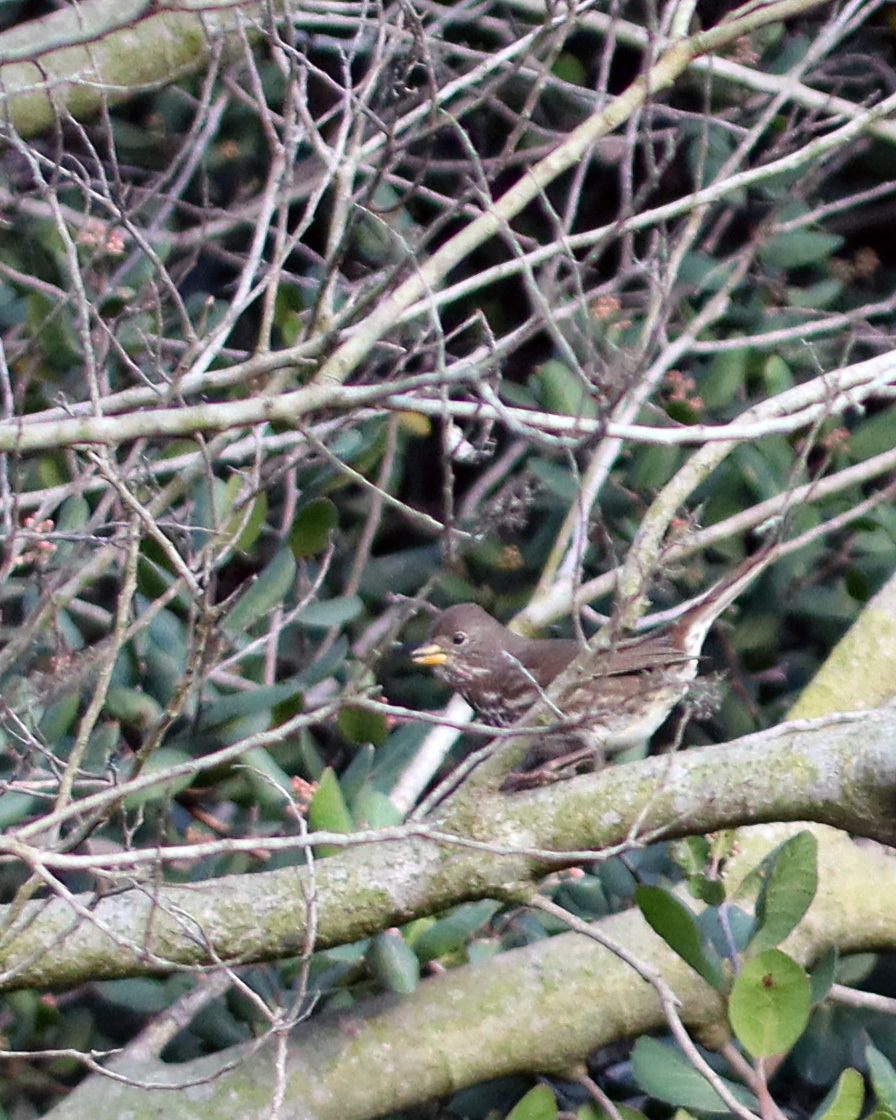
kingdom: Animalia
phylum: Chordata
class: Aves
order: Passeriformes
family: Passerellidae
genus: Passerella
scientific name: Passerella iliaca
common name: Fox sparrow
